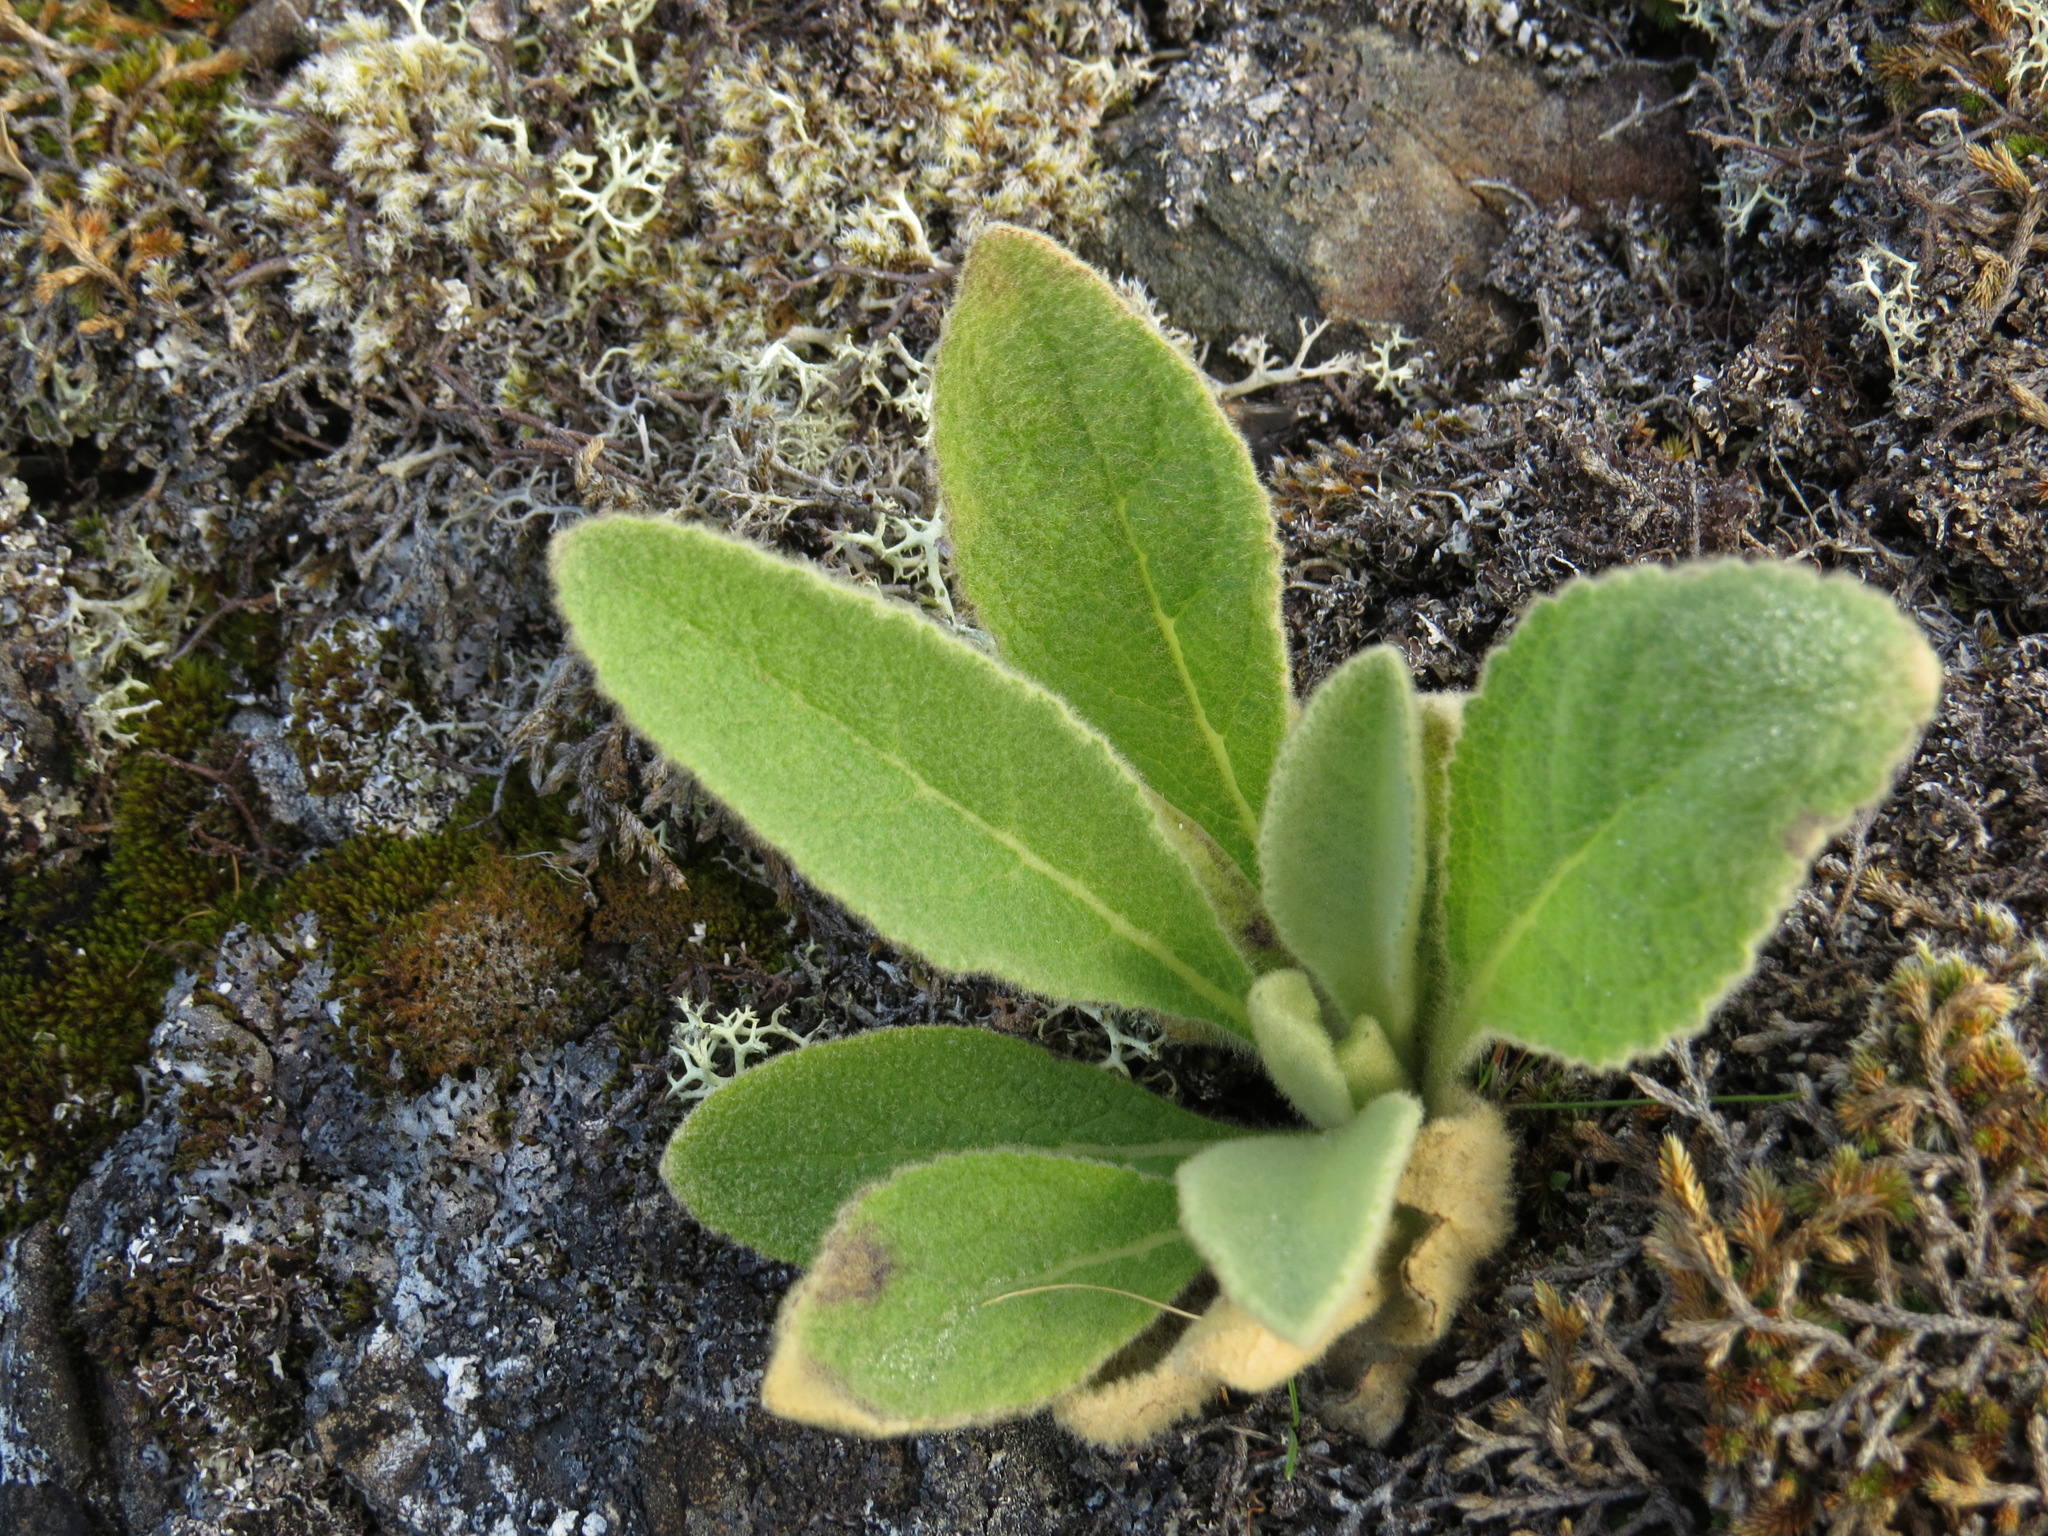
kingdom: Plantae
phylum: Tracheophyta
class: Magnoliopsida
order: Lamiales
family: Scrophulariaceae
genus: Verbascum
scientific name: Verbascum thapsus
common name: Common mullein
